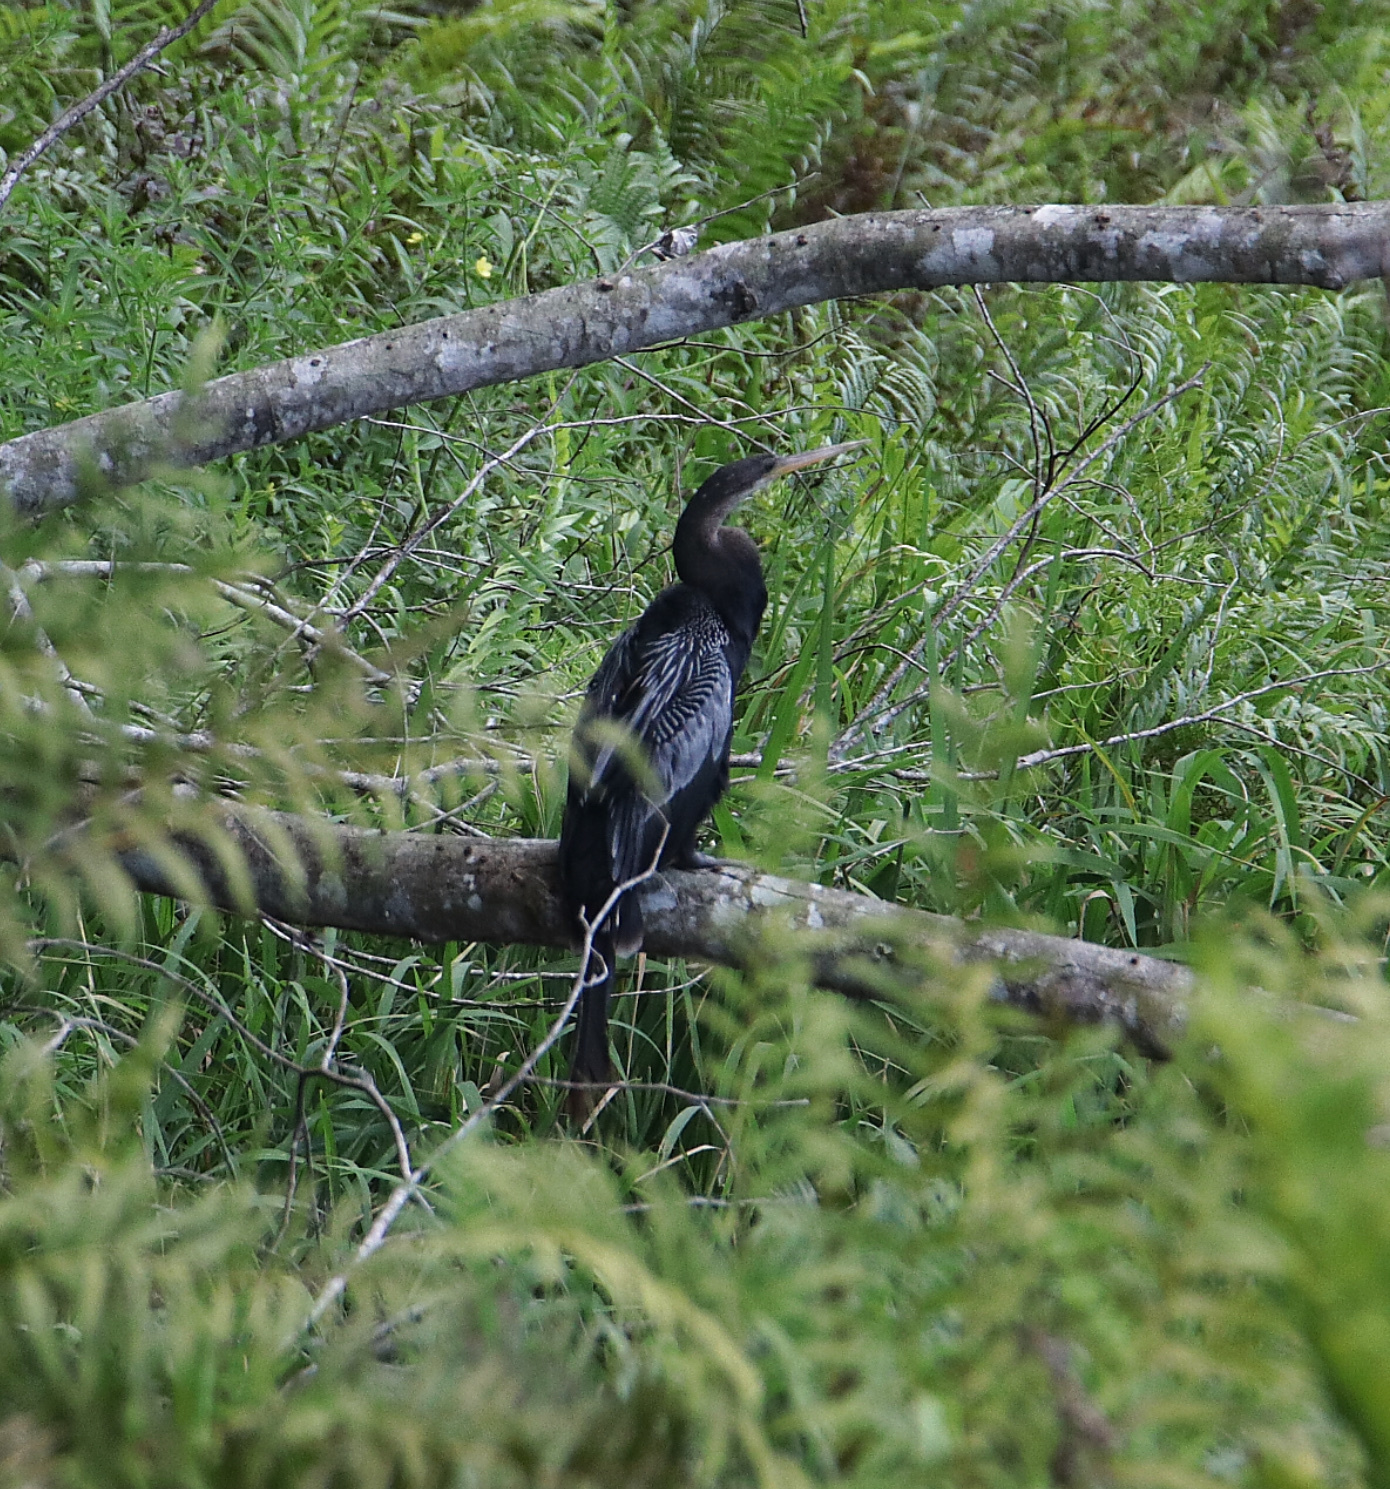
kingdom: Animalia
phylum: Chordata
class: Aves
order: Suliformes
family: Anhingidae
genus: Anhinga
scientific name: Anhinga anhinga
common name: Anhinga
